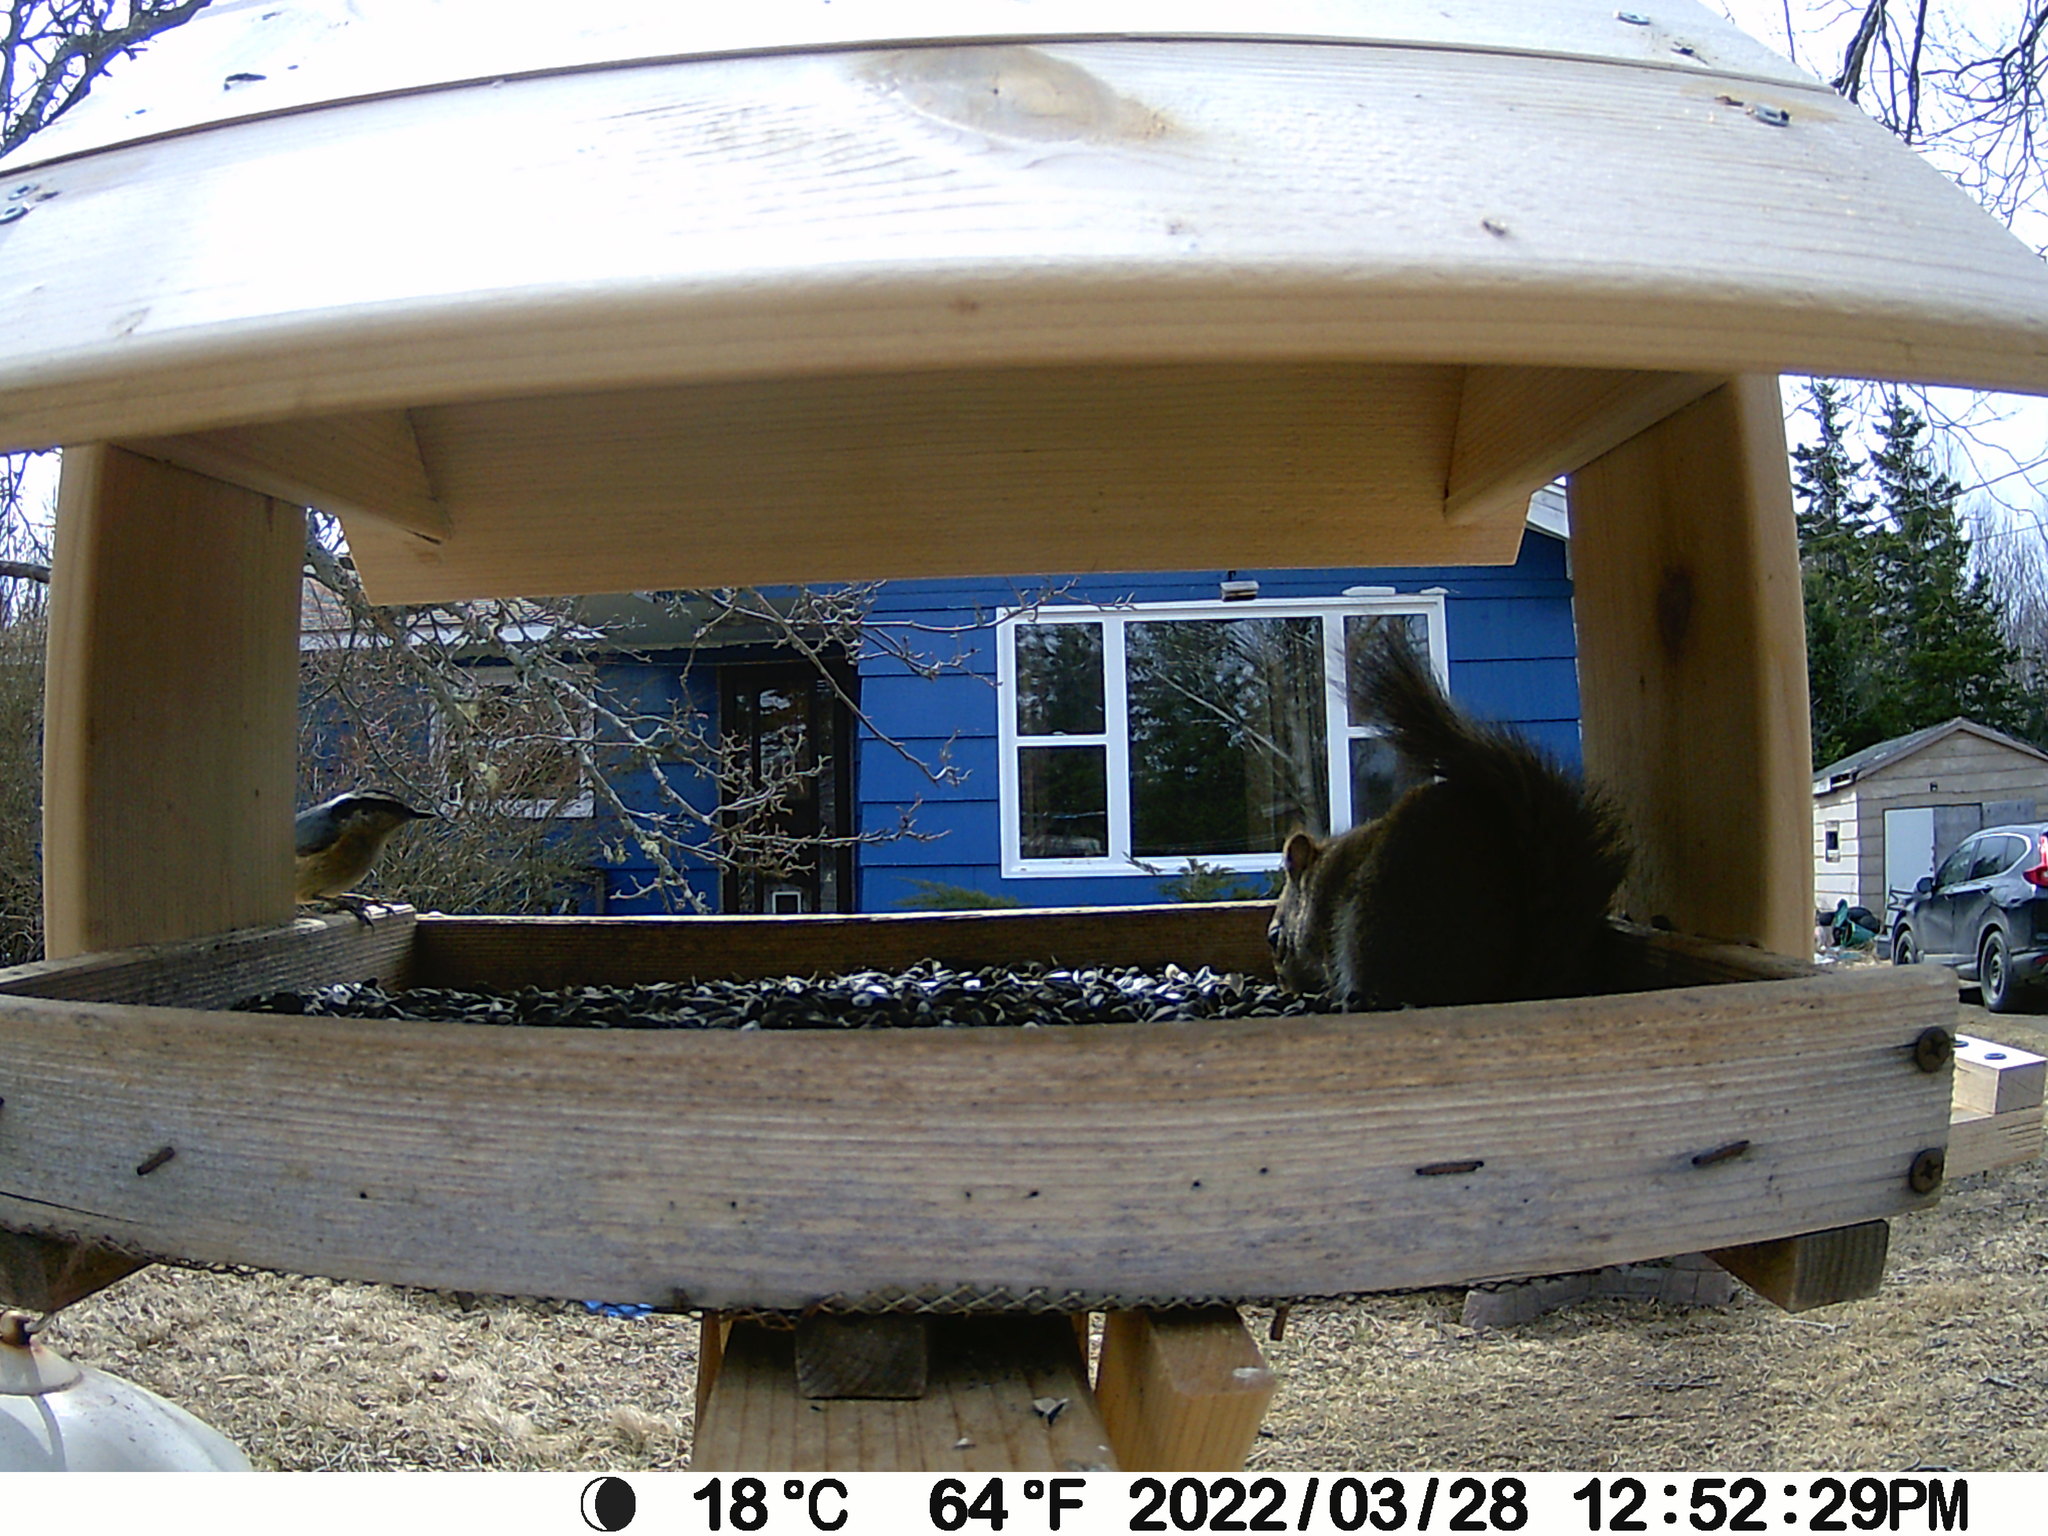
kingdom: Animalia
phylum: Chordata
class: Aves
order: Passeriformes
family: Sittidae
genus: Sitta
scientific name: Sitta canadensis
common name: Red-breasted nuthatch
